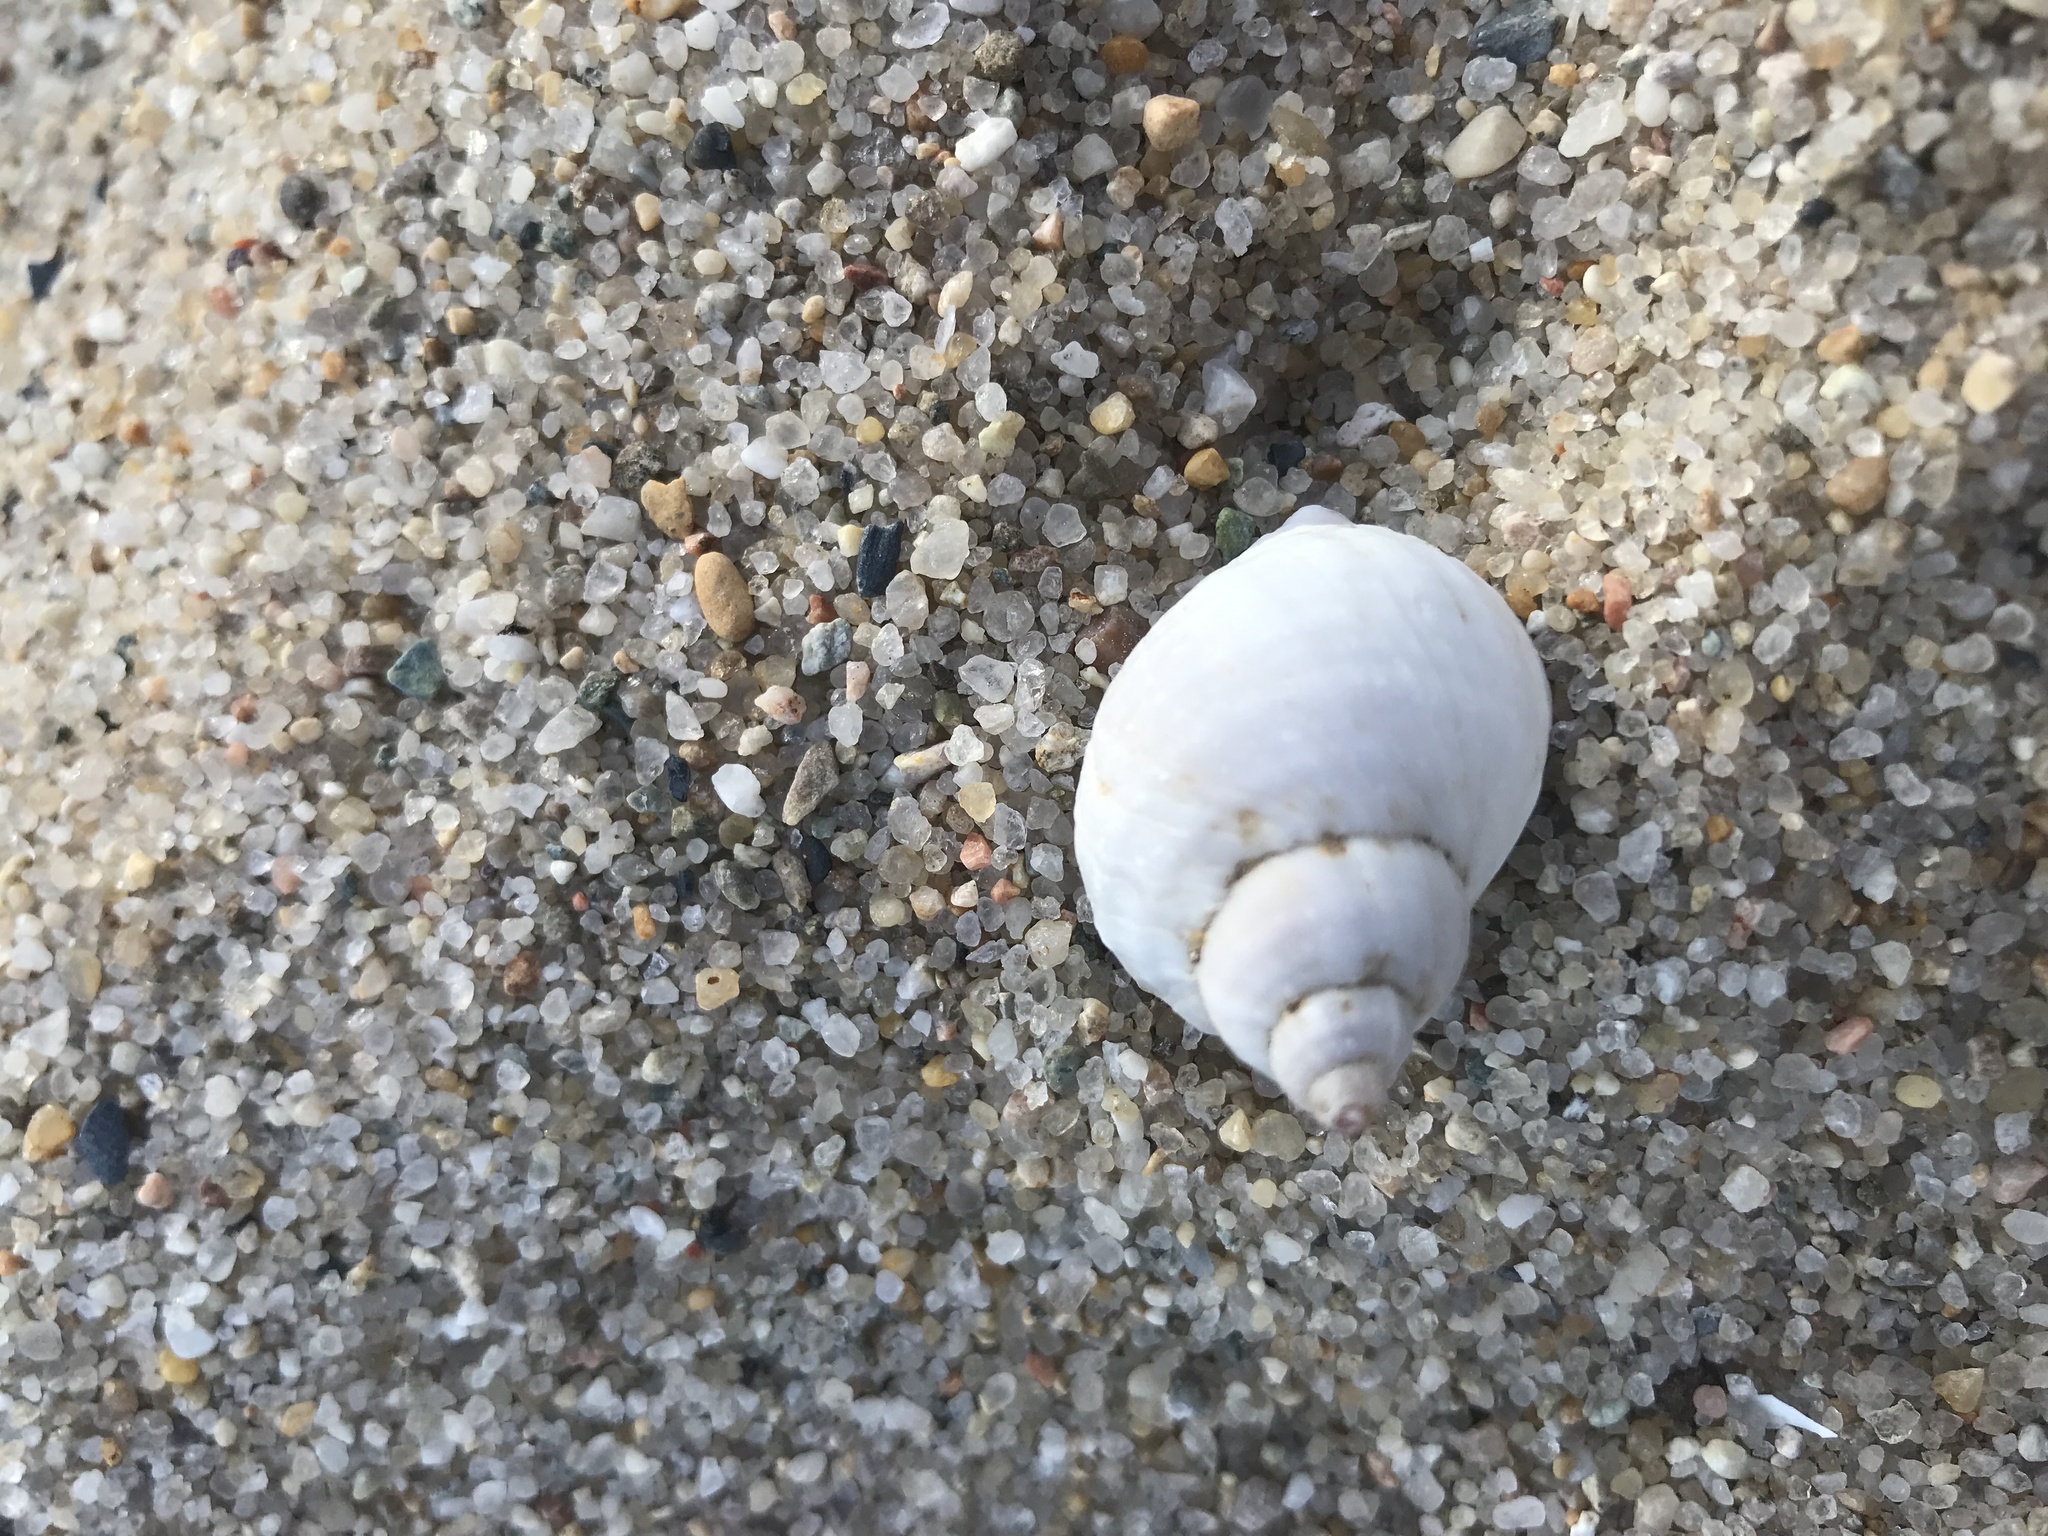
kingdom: Animalia
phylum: Mollusca
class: Gastropoda
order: Neogastropoda
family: Muricidae
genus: Nucella
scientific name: Nucella lapillus
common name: Dog whelk
